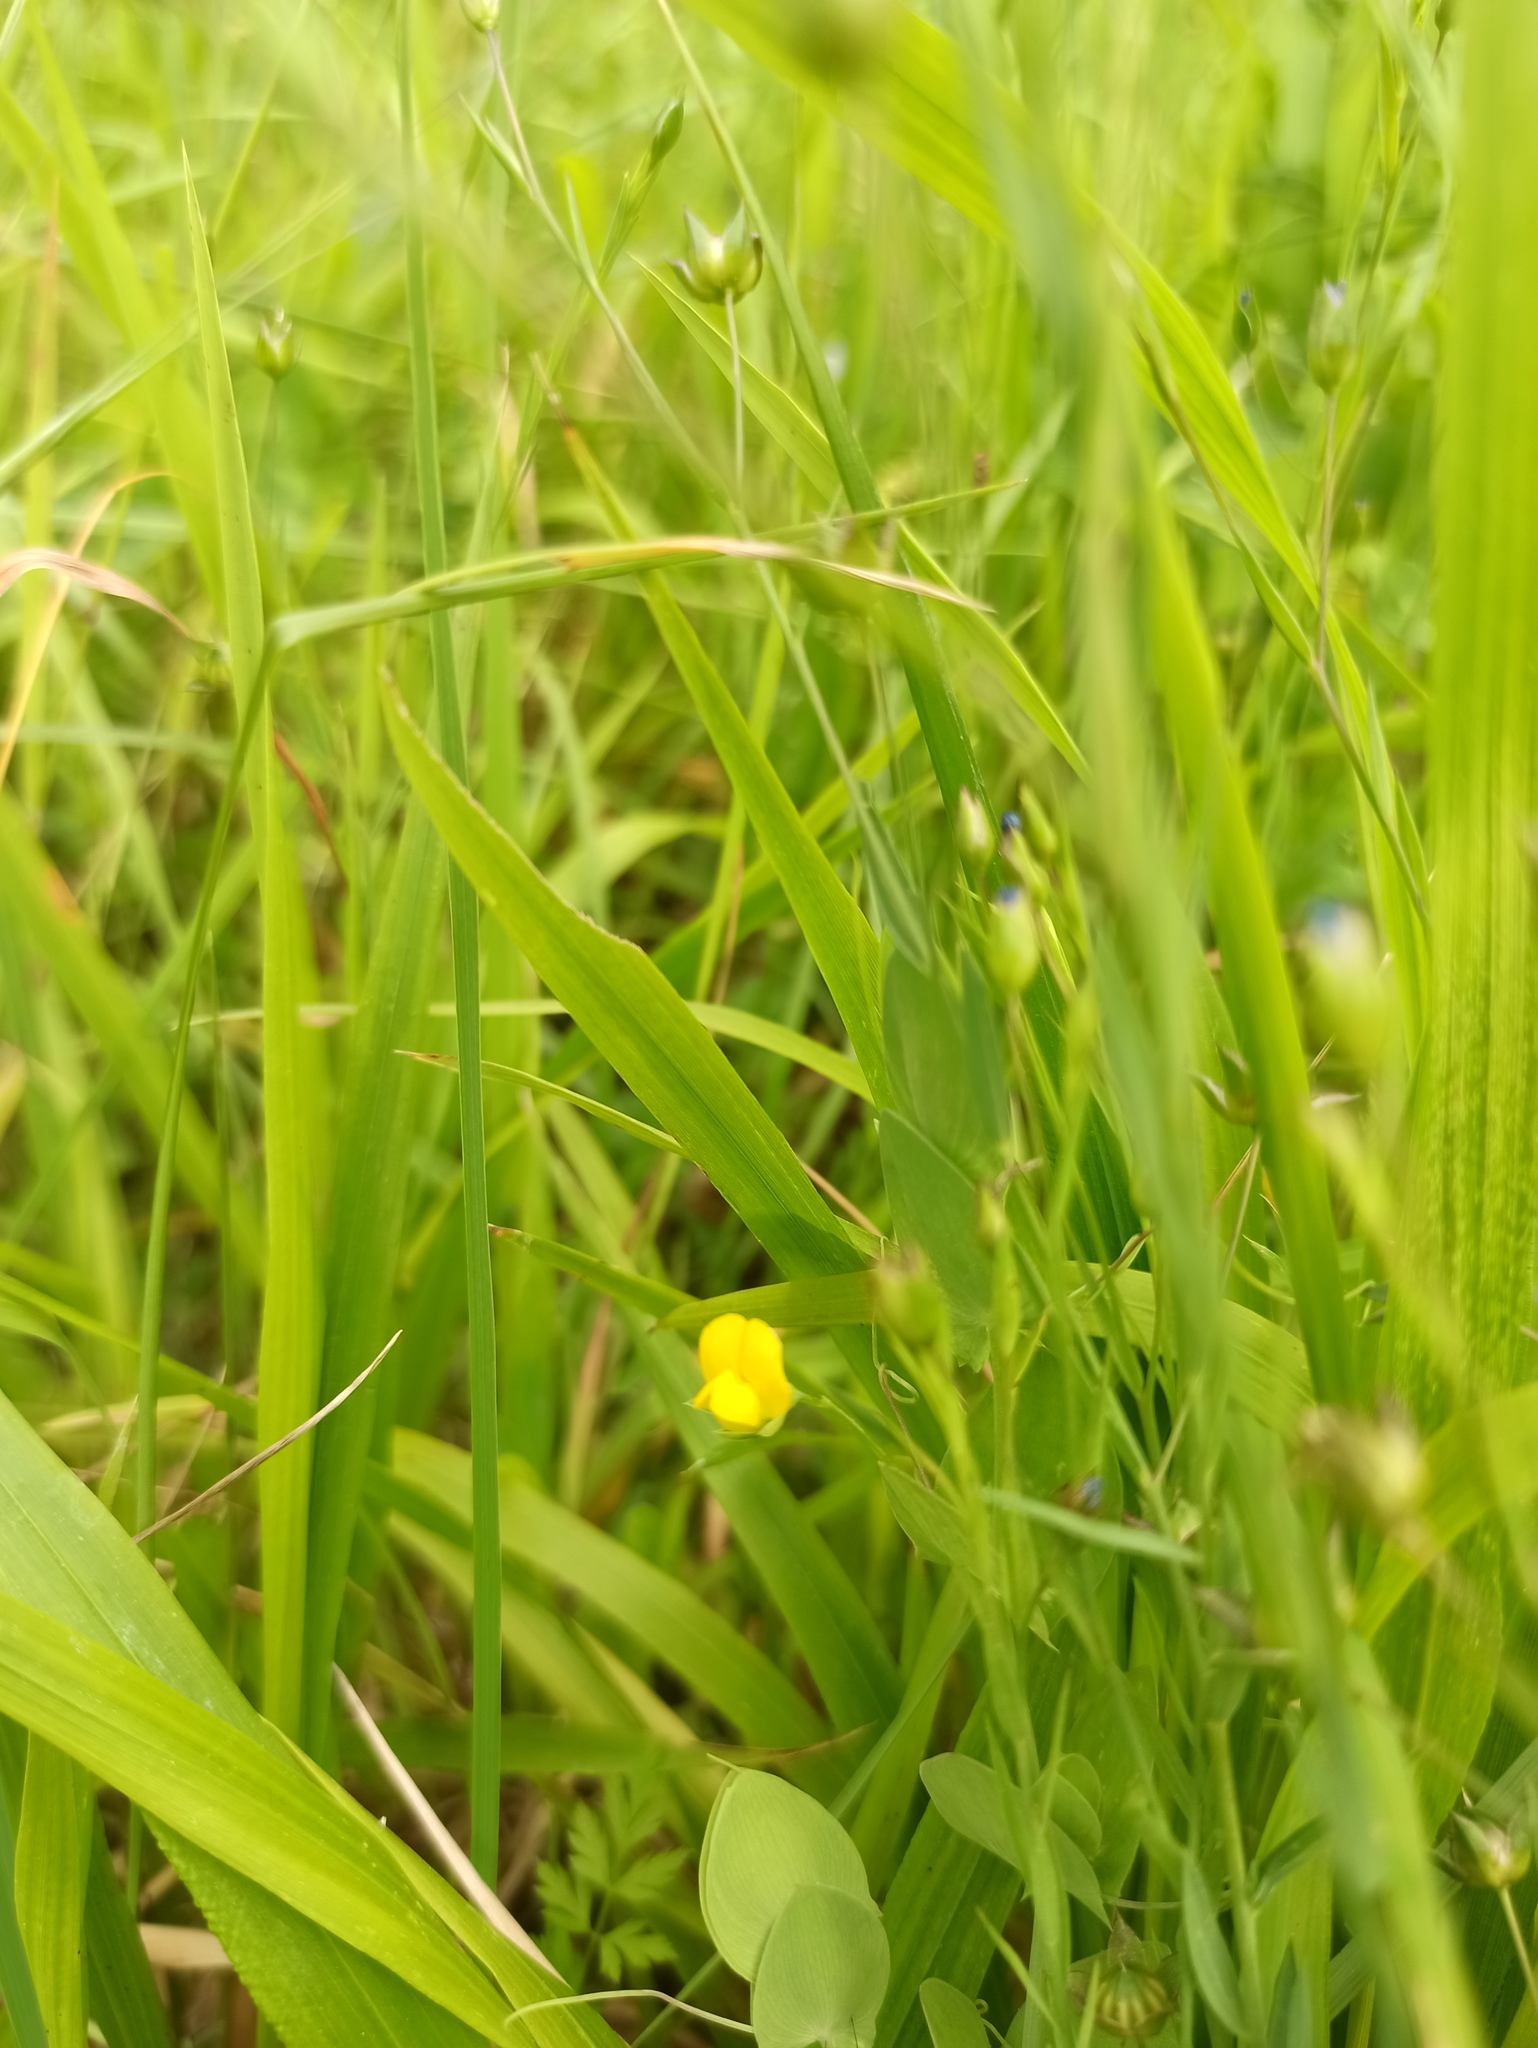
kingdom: Plantae
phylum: Tracheophyta
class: Magnoliopsida
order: Fabales
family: Fabaceae
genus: Lathyrus
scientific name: Lathyrus aphaca
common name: Yellow vetchling
